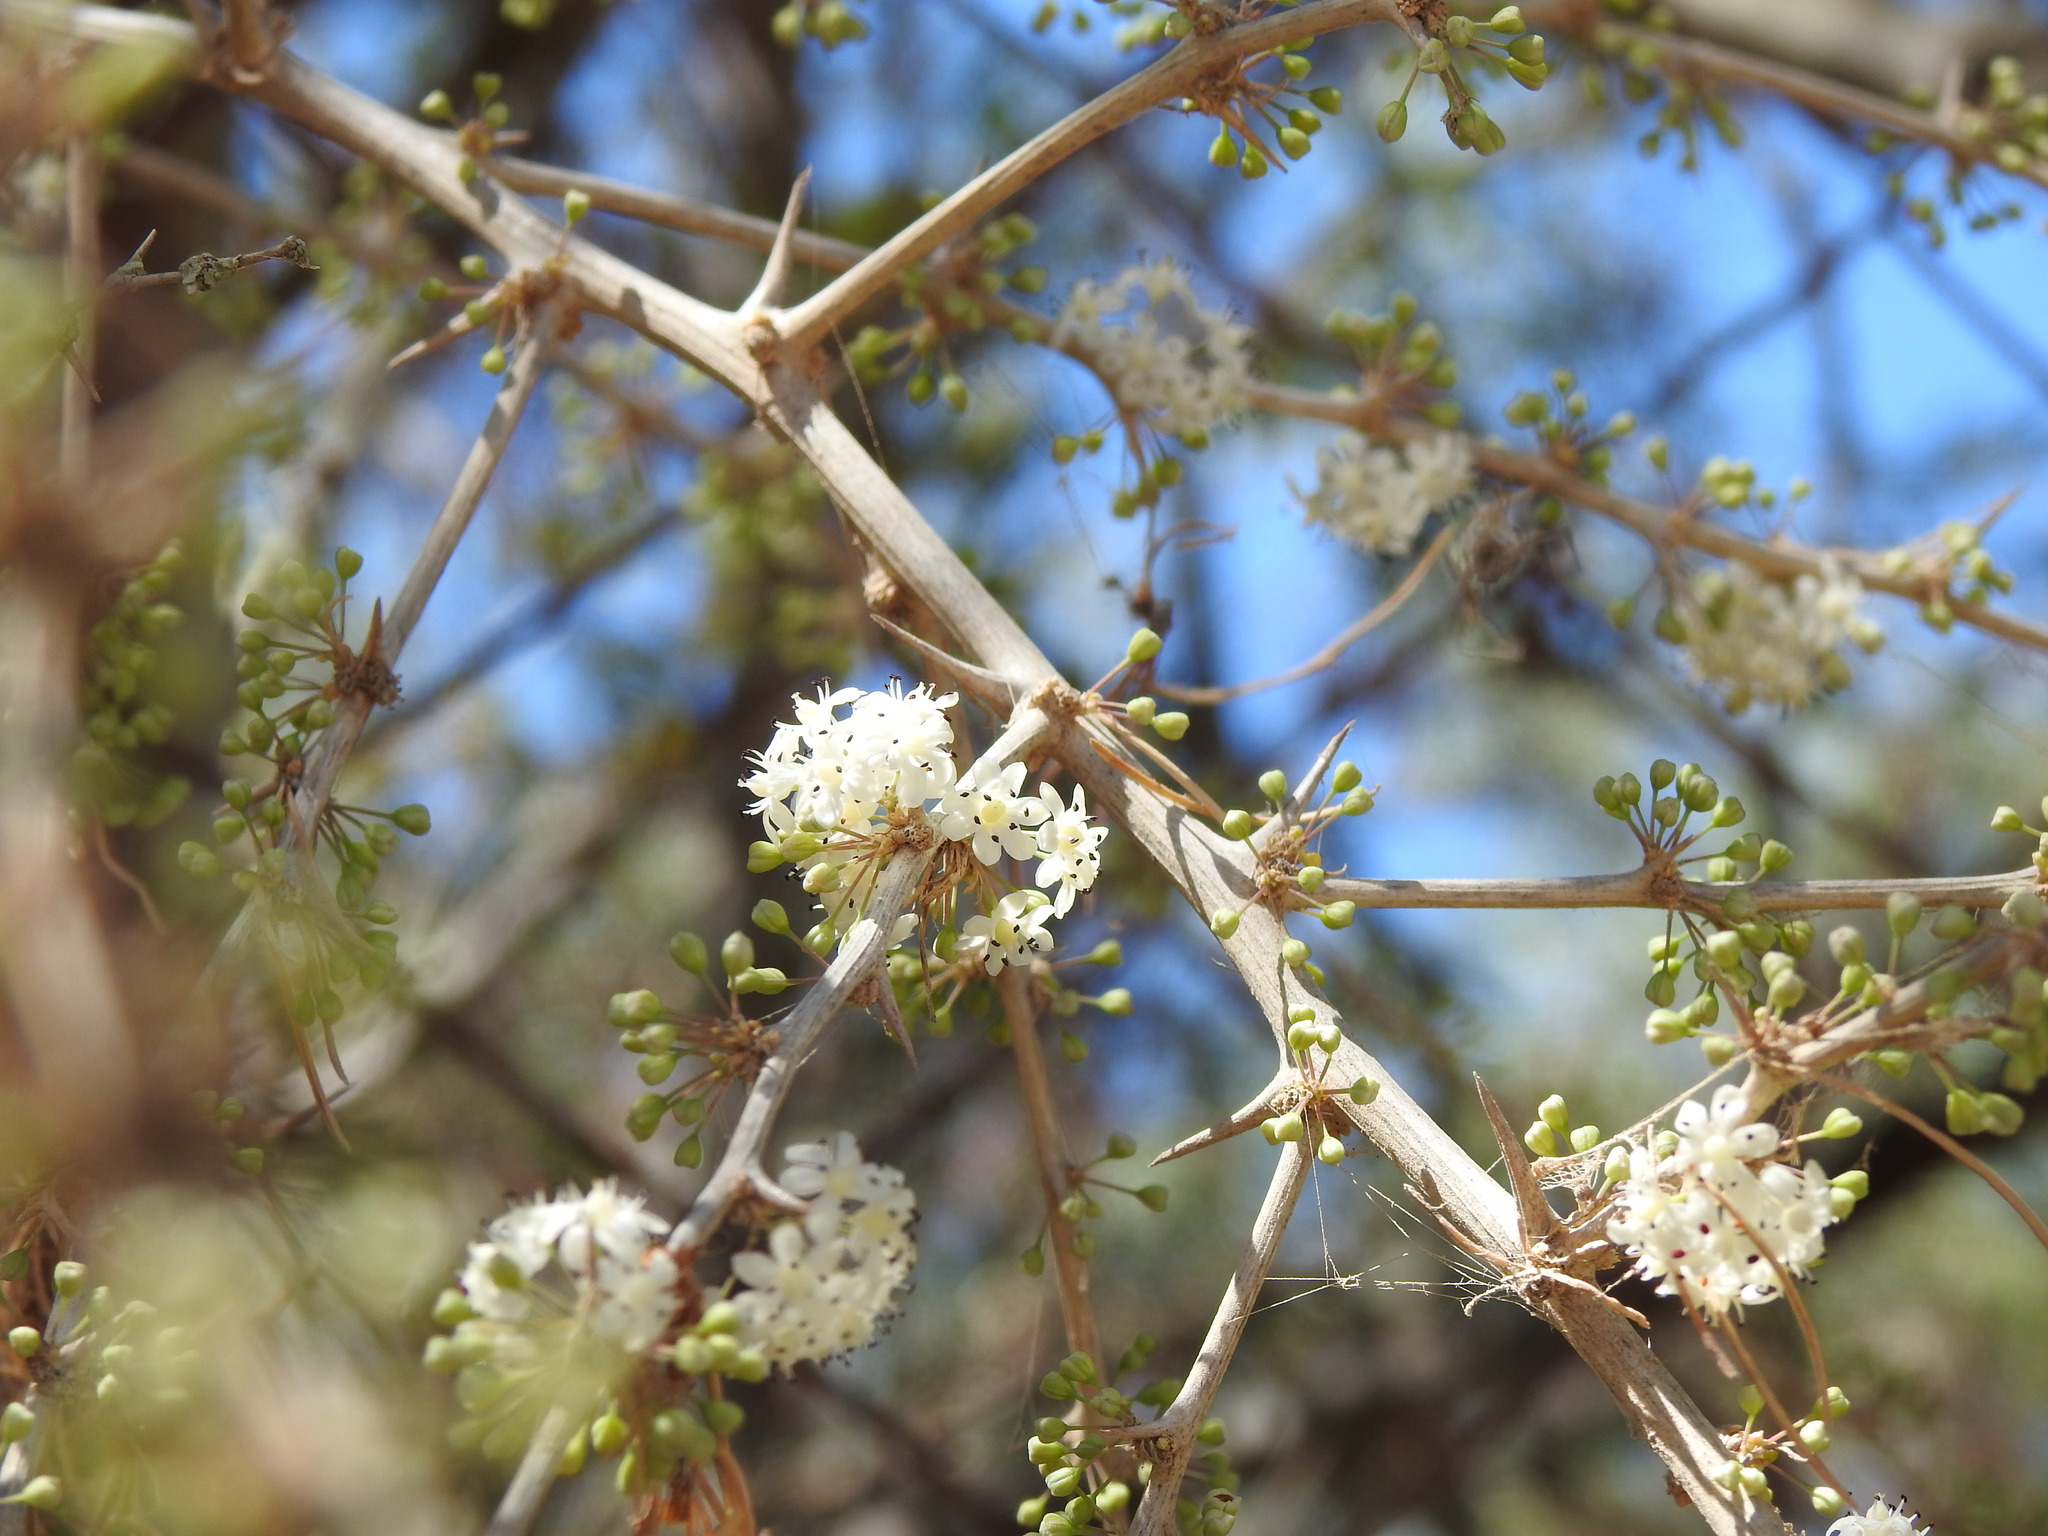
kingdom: Plantae
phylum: Tracheophyta
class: Liliopsida
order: Asparagales
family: Asparagaceae
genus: Asparagus
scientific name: Asparagus albus
